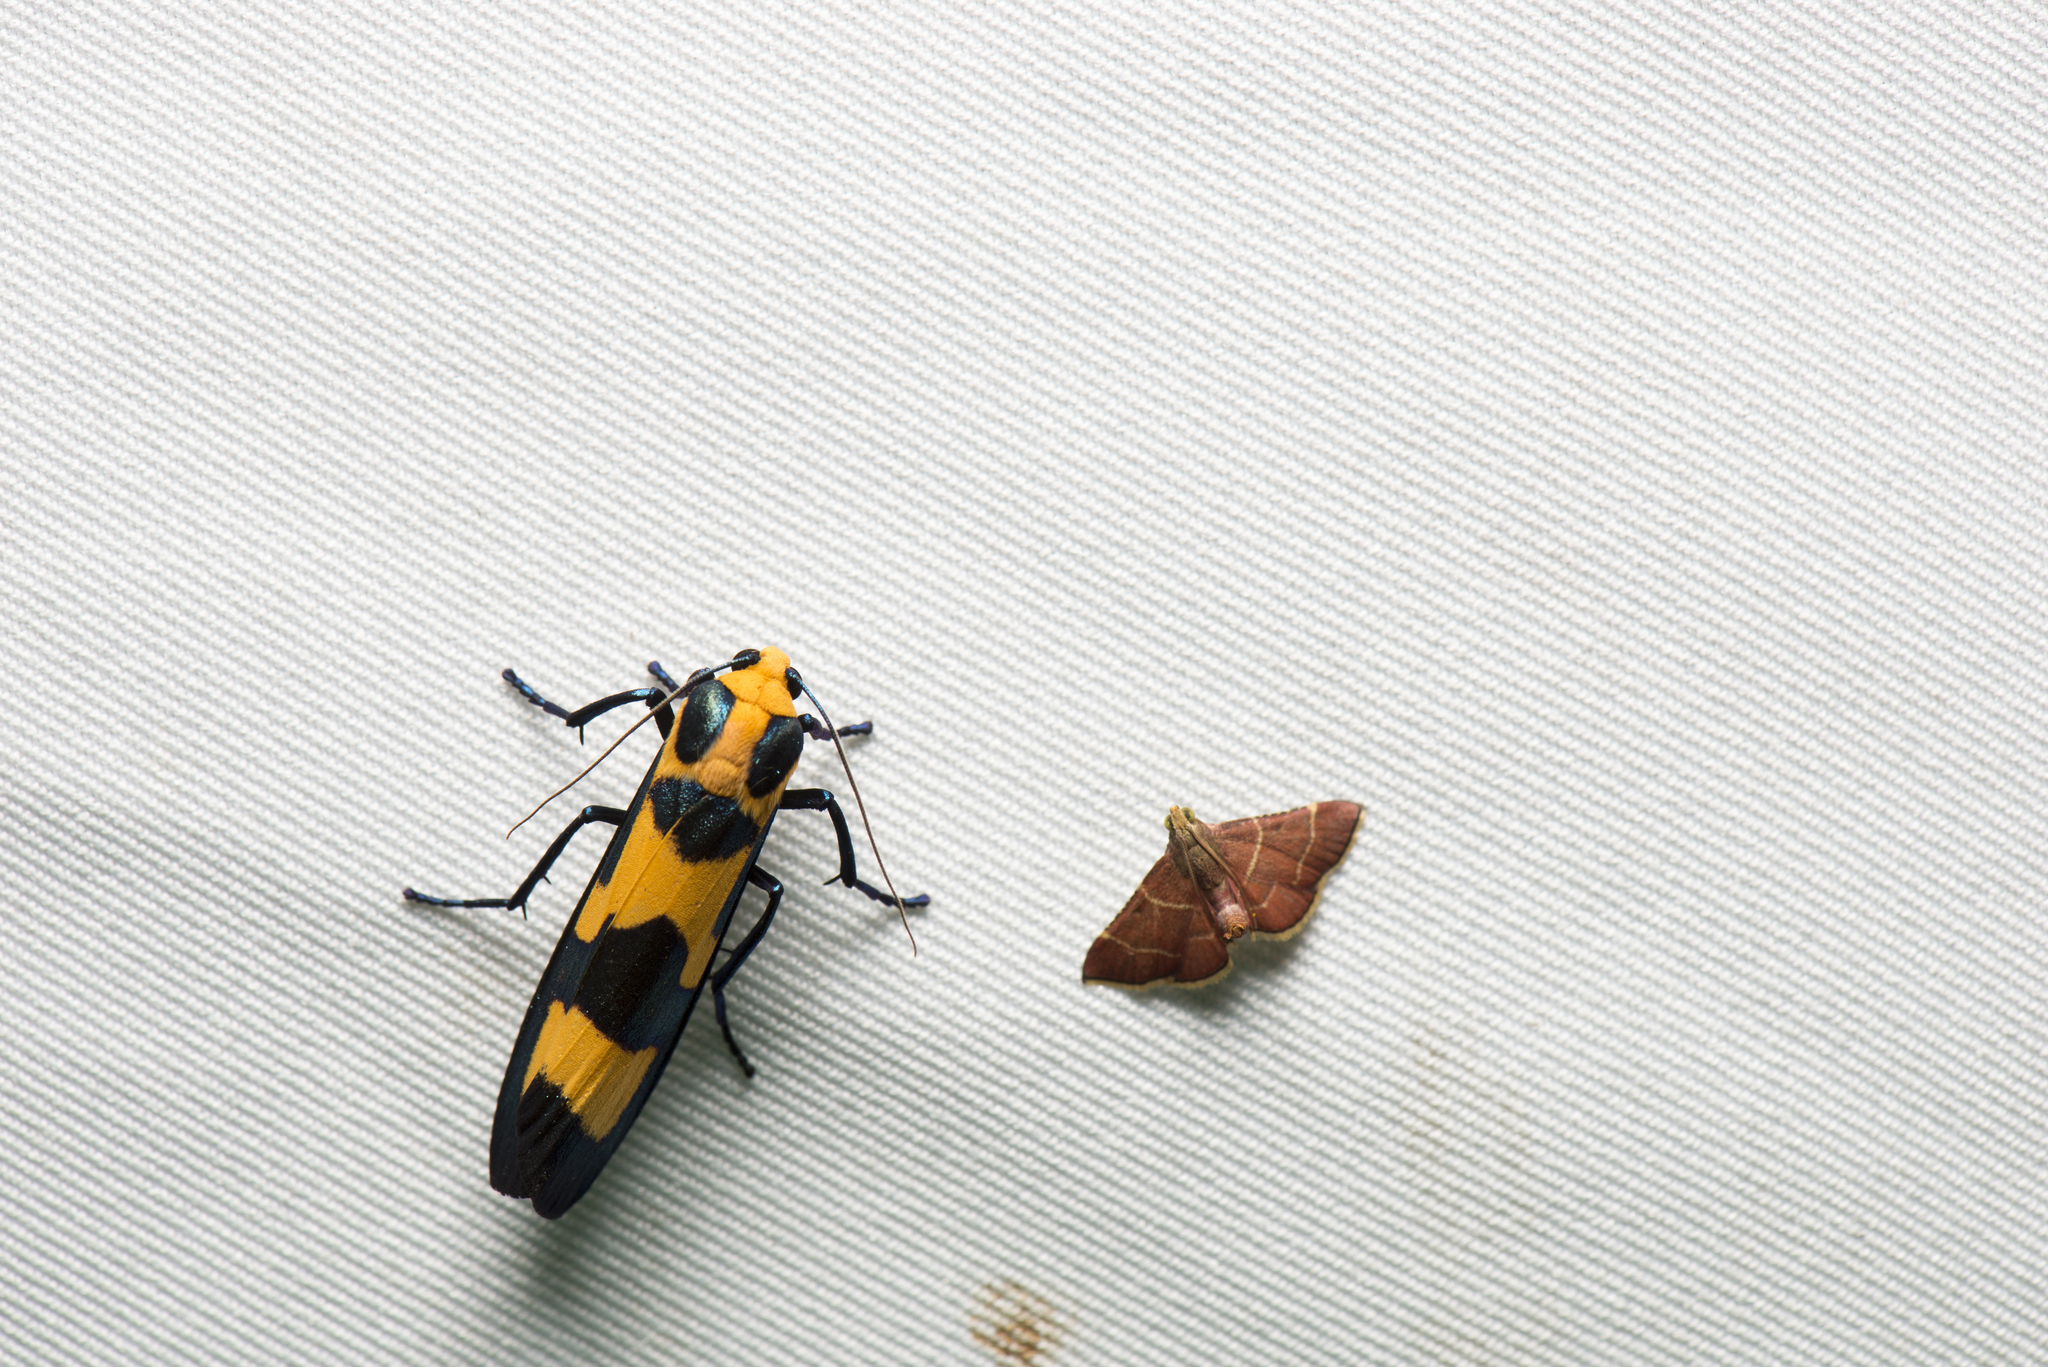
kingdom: Animalia
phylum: Arthropoda
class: Insecta
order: Lepidoptera
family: Erebidae
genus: Chrysaeglia
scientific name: Chrysaeglia magnifica
